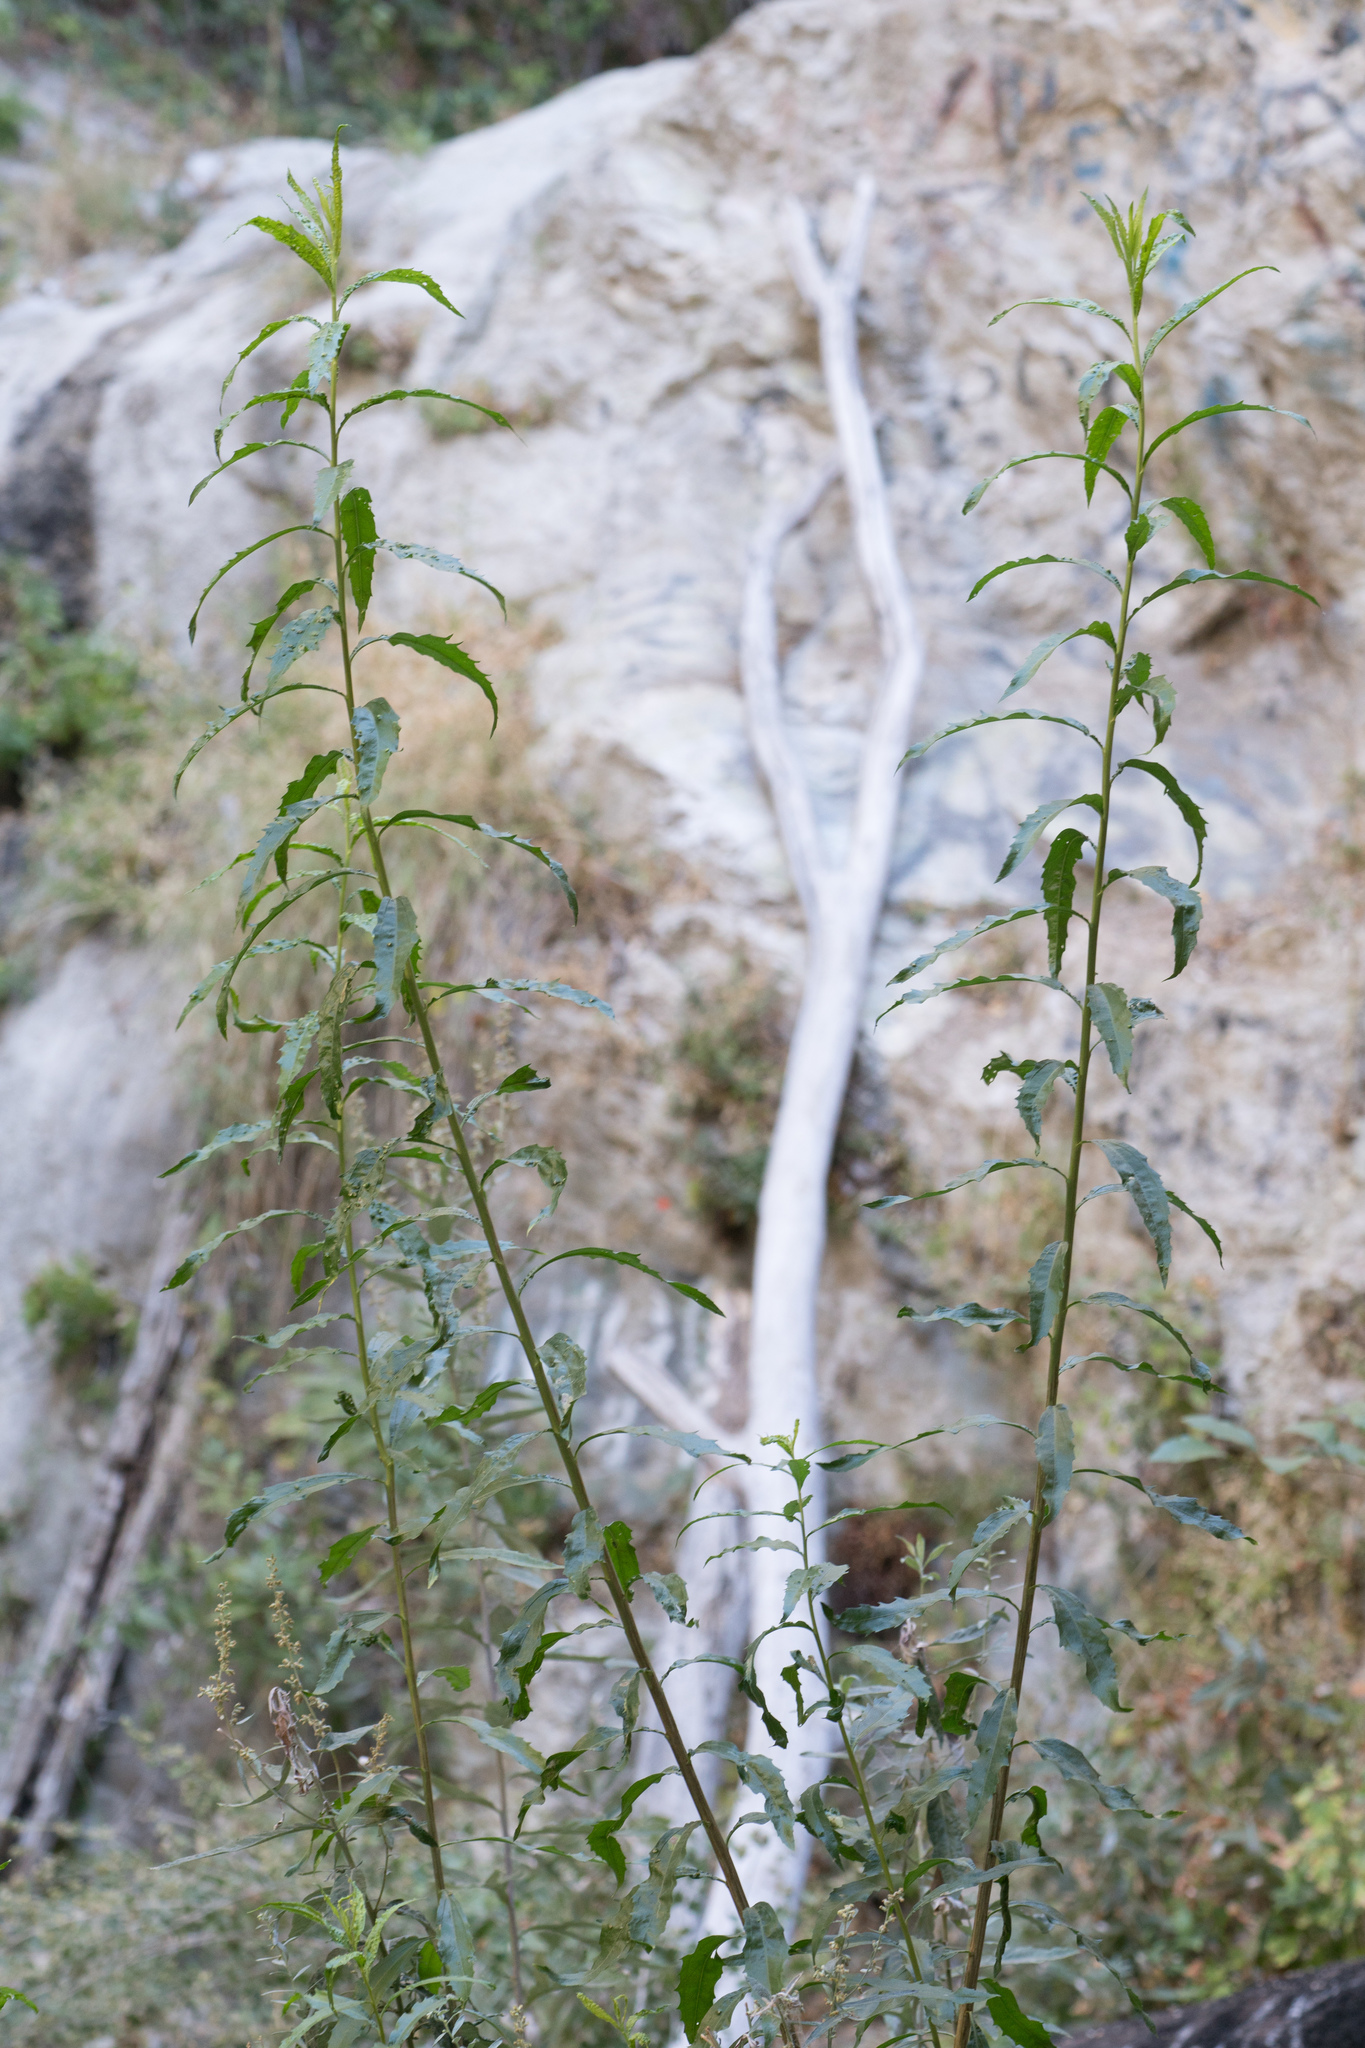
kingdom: Plantae
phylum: Tracheophyta
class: Magnoliopsida
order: Asterales
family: Asteraceae
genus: Baccharis
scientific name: Baccharis salicifolia
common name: Sticky baccharis
